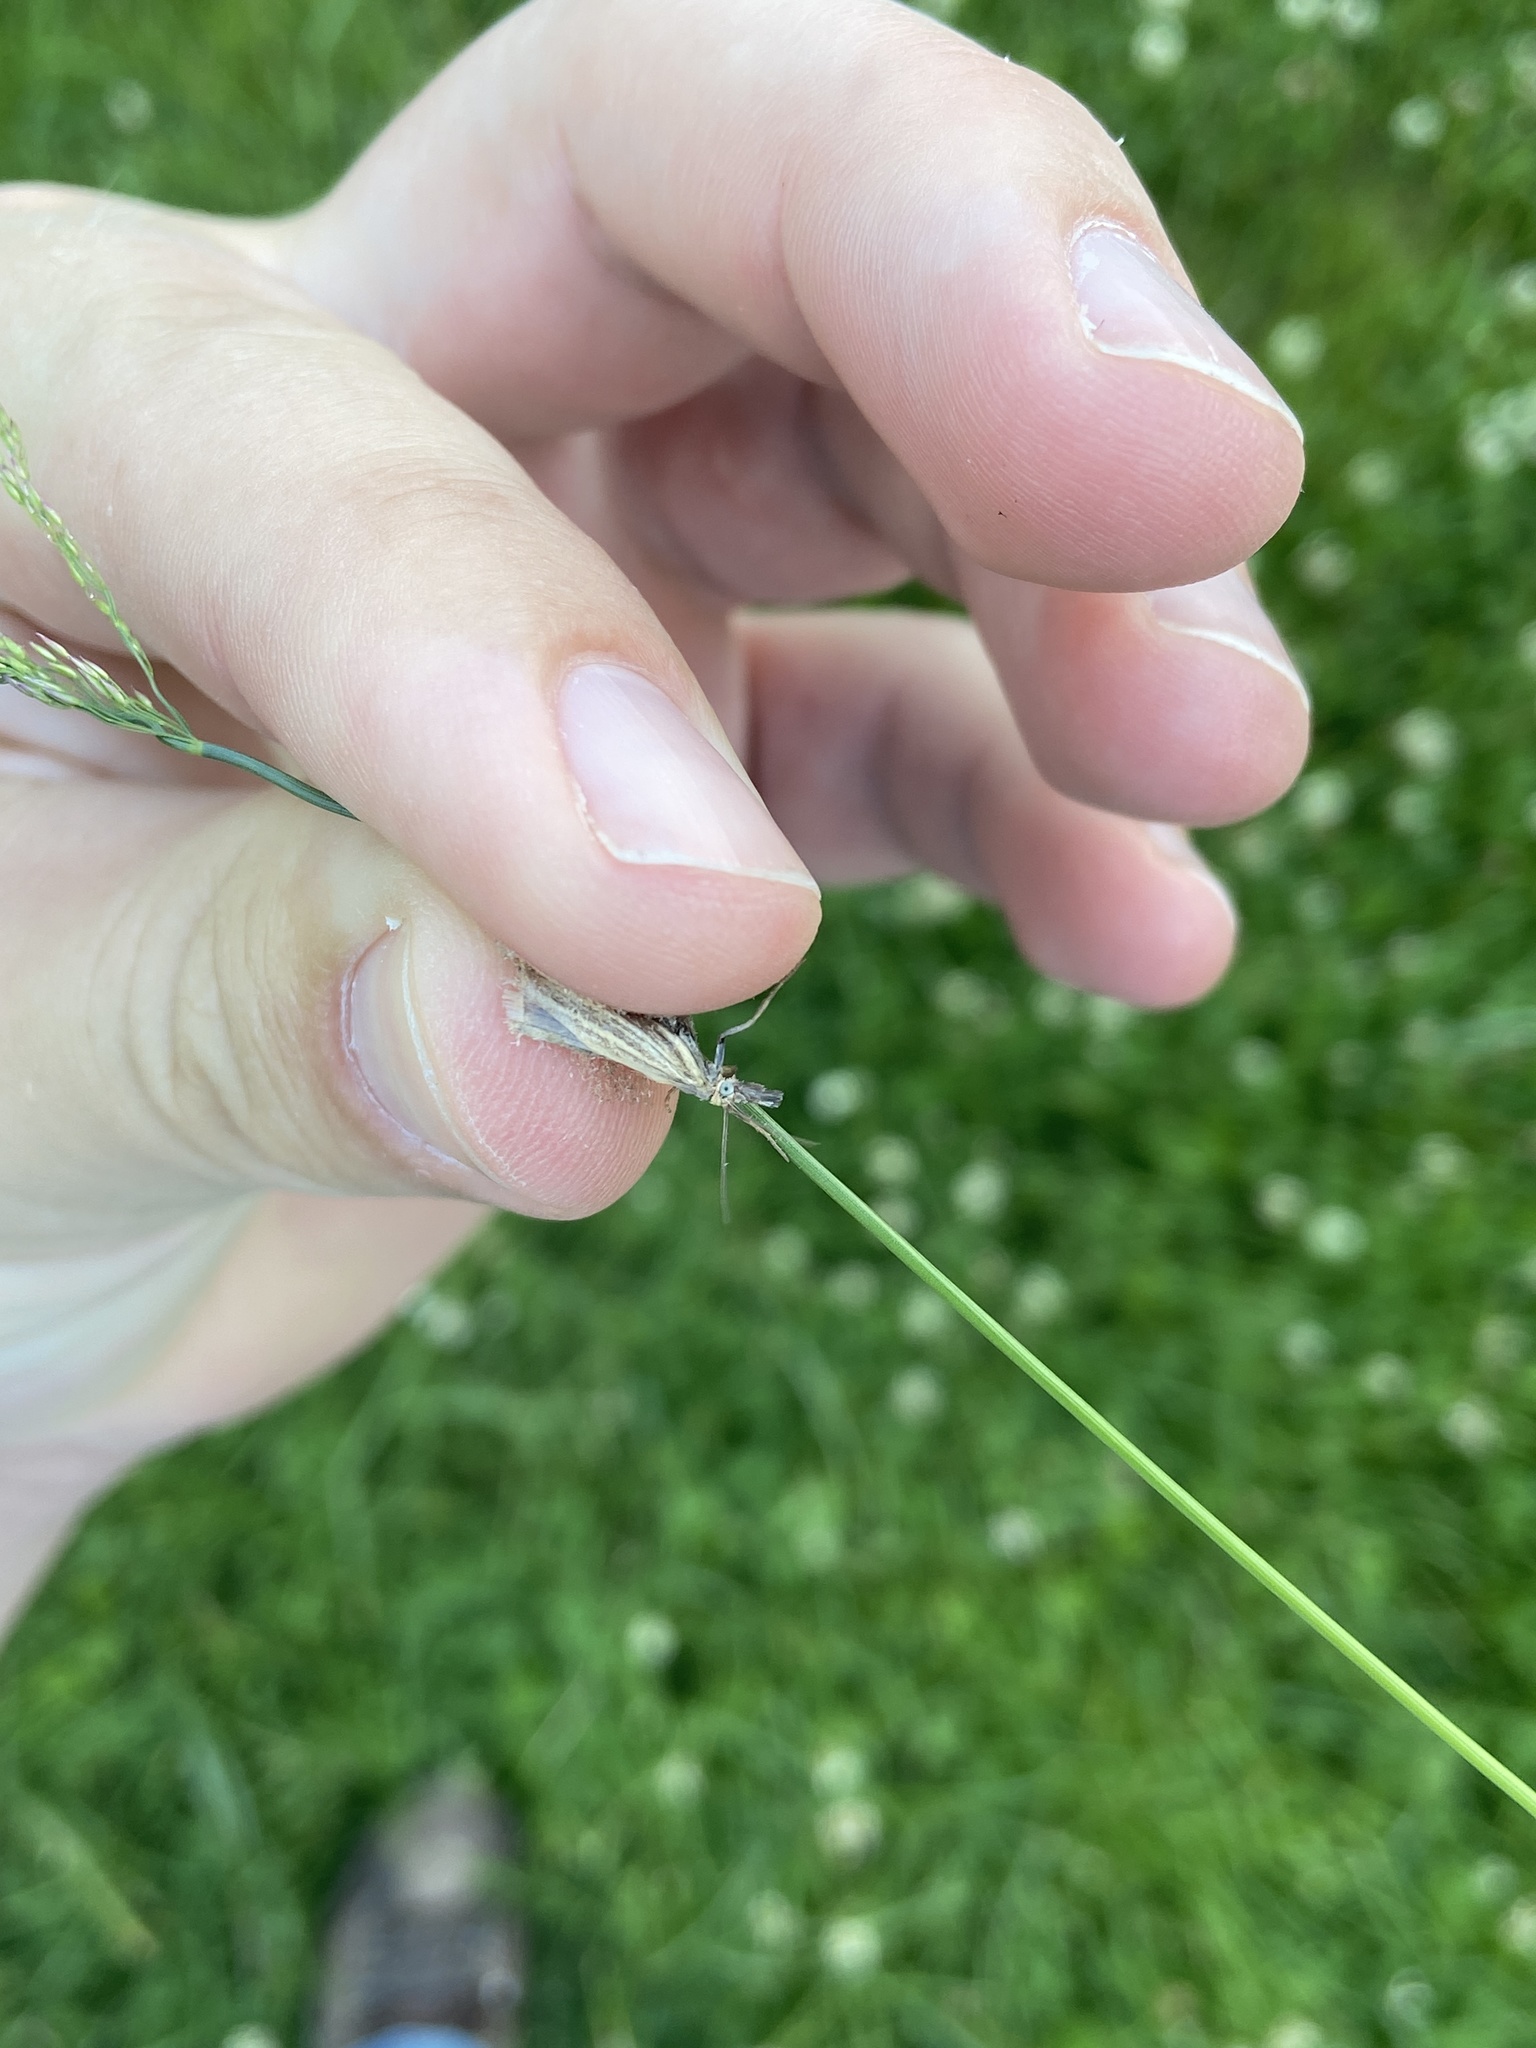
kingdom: Animalia
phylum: Arthropoda
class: Insecta
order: Lepidoptera
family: Crambidae
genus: Chrysoteuchia
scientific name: Chrysoteuchia culmella
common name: Garden grass-veneer
